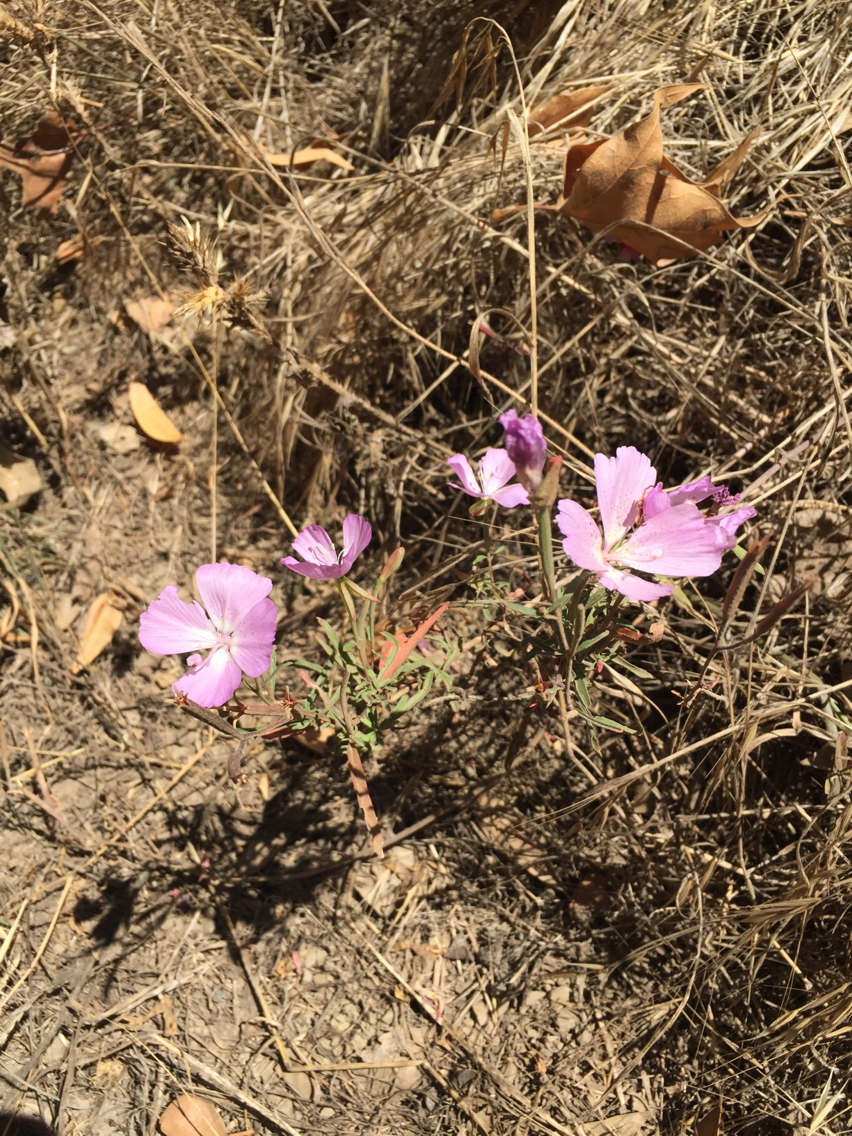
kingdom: Plantae
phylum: Tracheophyta
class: Magnoliopsida
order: Myrtales
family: Onagraceae
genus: Clarkia
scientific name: Clarkia bottae
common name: Punch-bowl godetia
